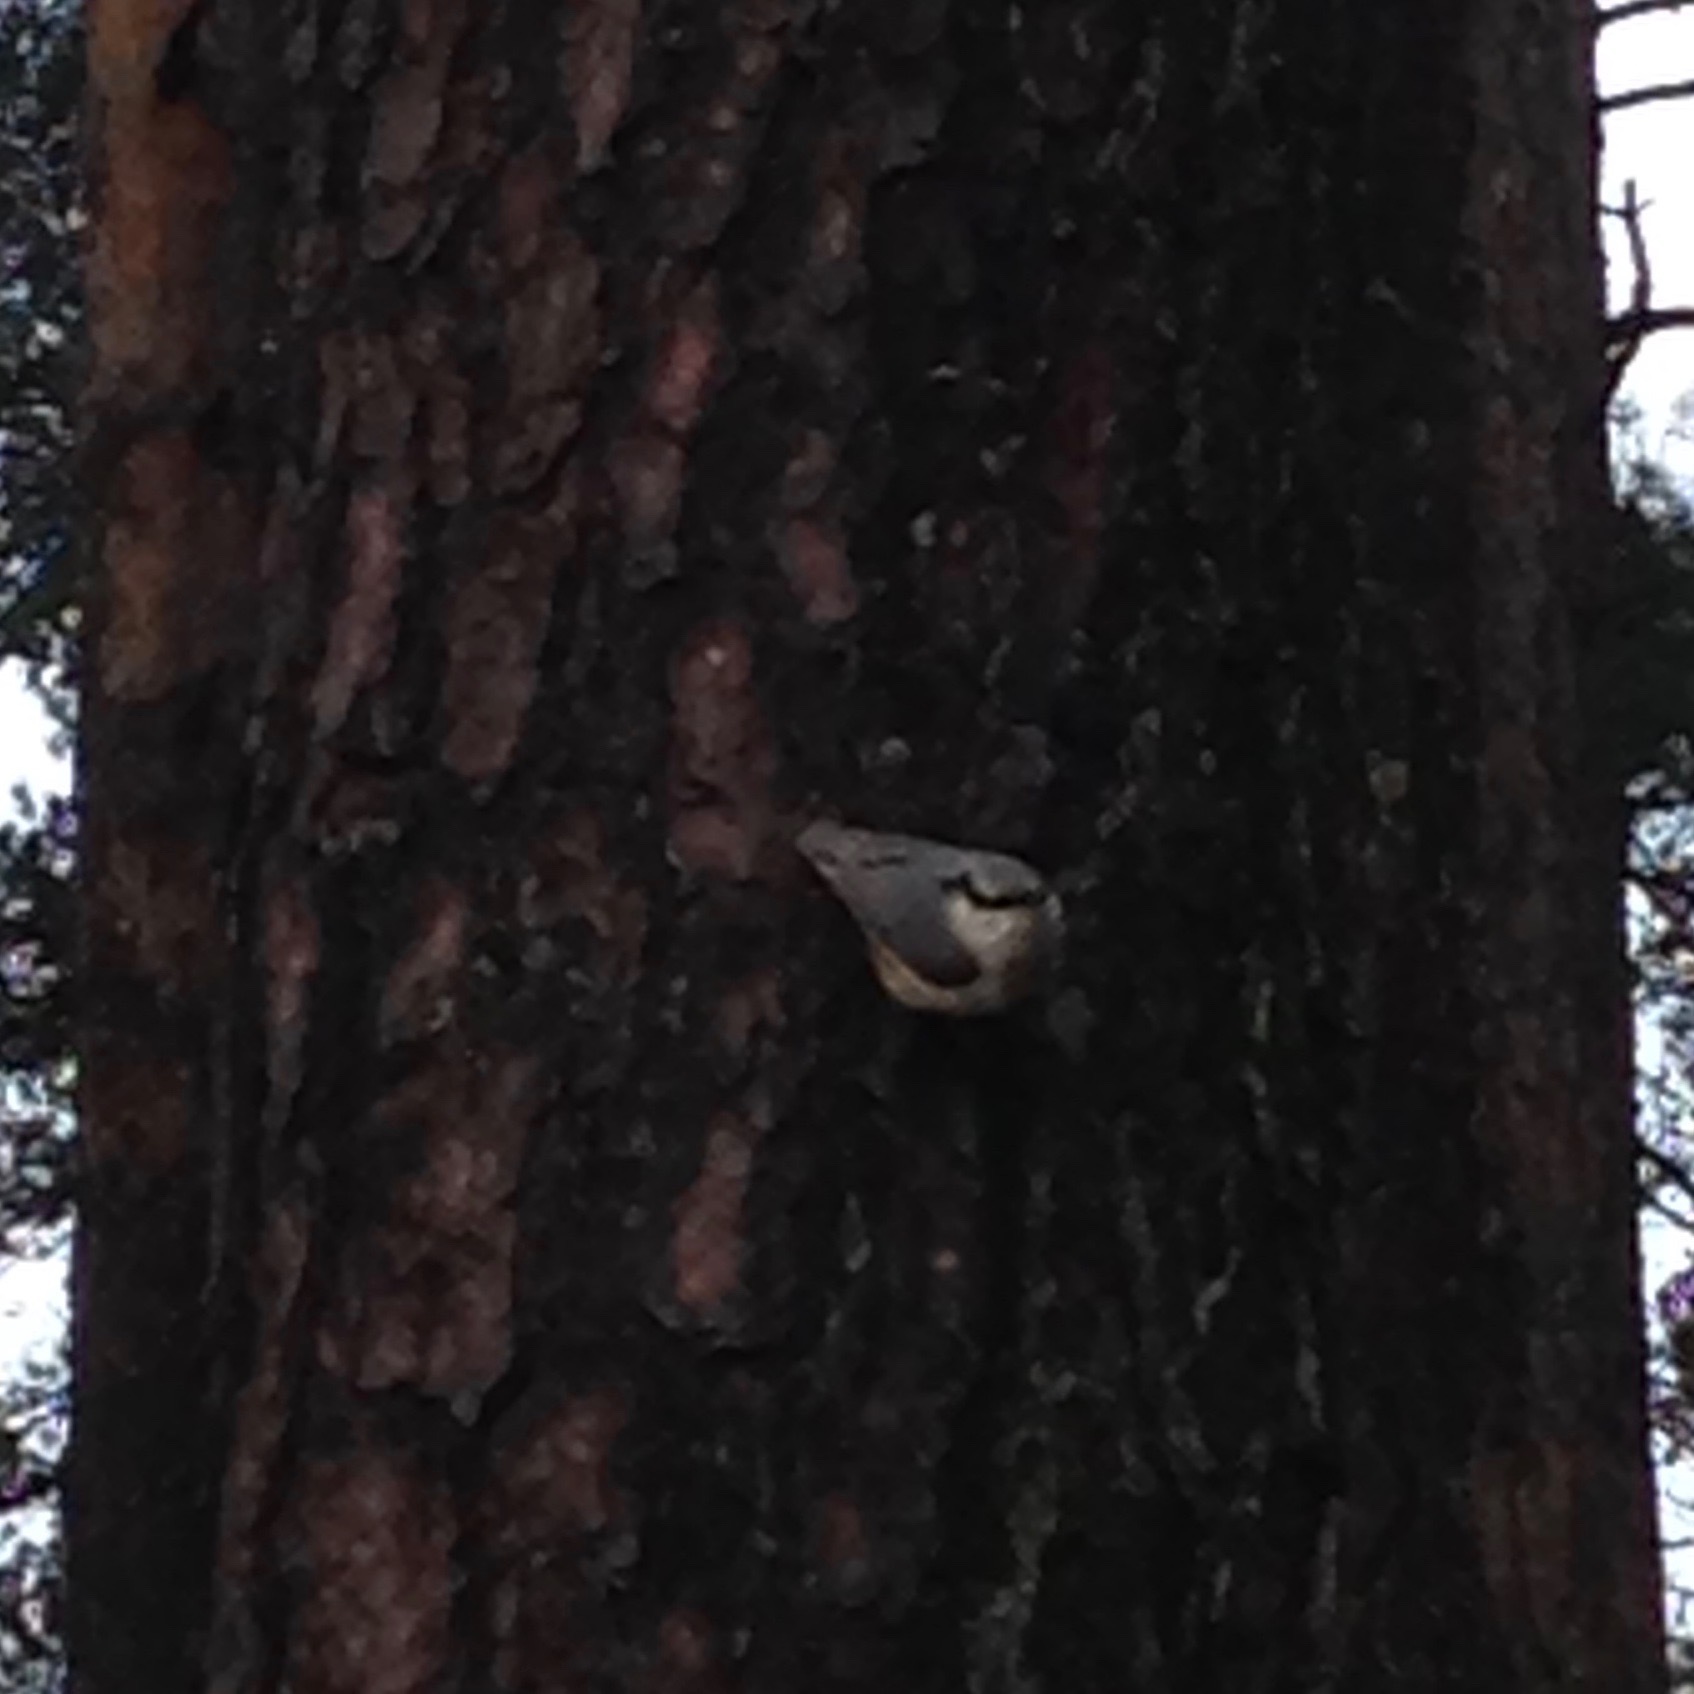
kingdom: Animalia
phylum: Chordata
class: Aves
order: Passeriformes
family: Sittidae
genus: Sitta
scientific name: Sitta europaea
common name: Eurasian nuthatch
